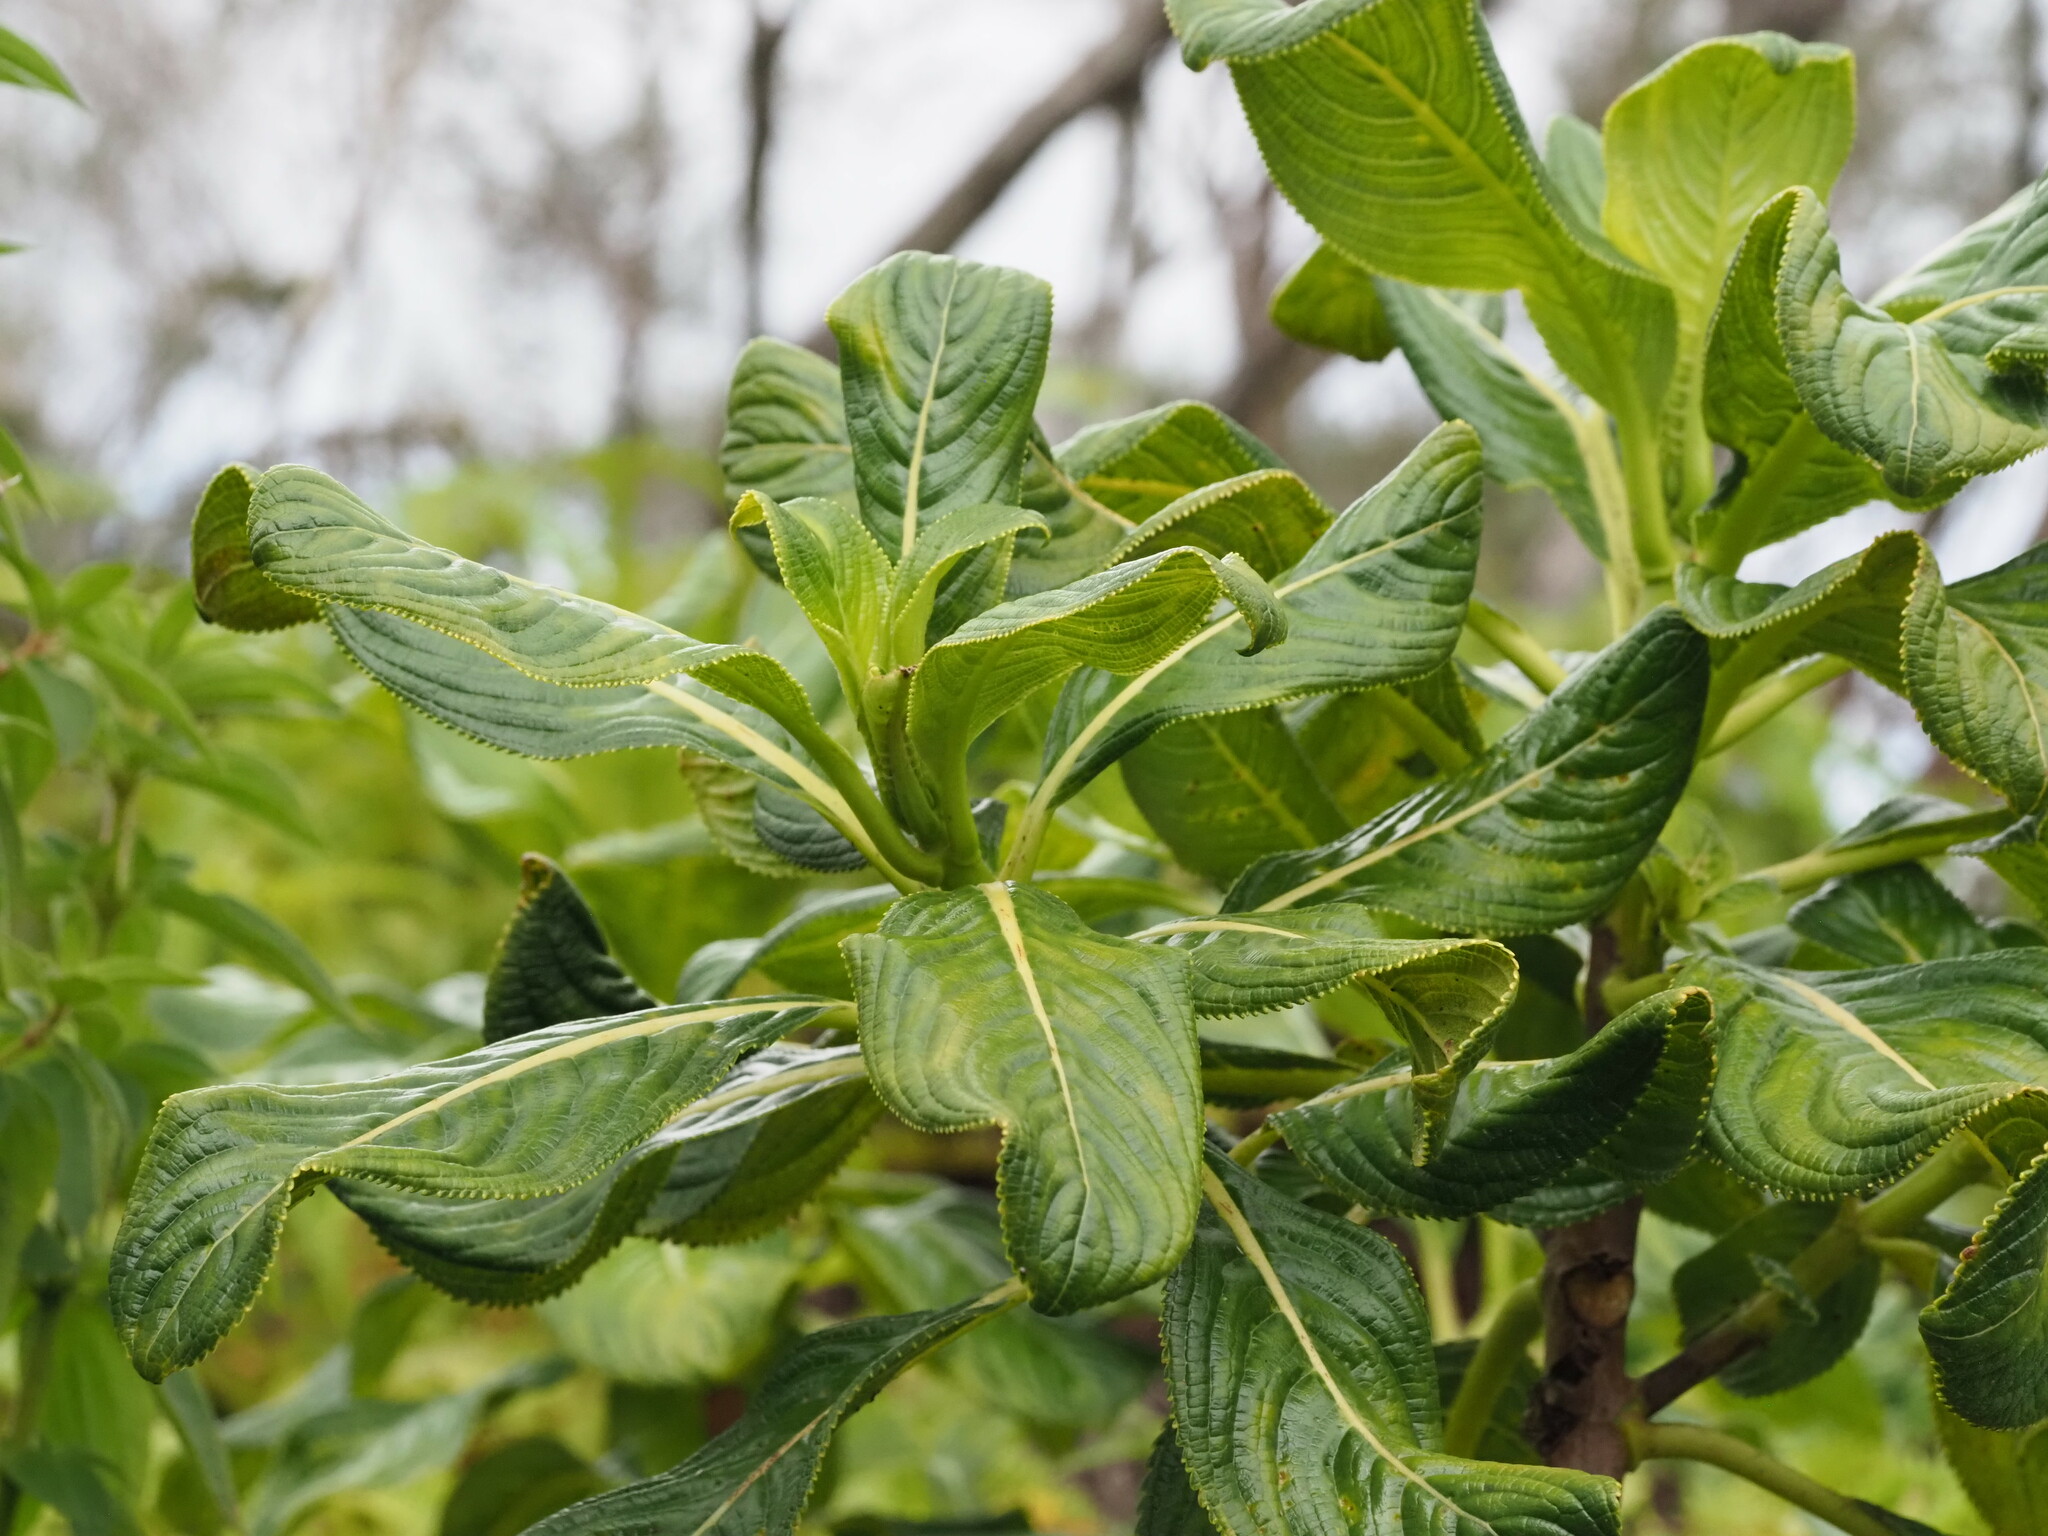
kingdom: Plantae
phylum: Tracheophyta
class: Magnoliopsida
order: Cornales
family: Hydrangeaceae
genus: Hydrangea
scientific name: Hydrangea arguta
